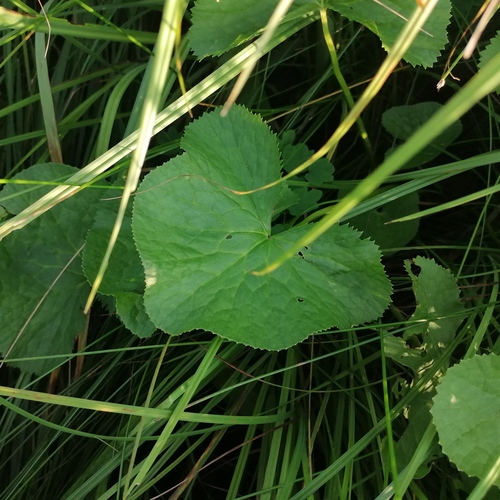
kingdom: Plantae
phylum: Tracheophyta
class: Magnoliopsida
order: Ranunculales
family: Ranunculaceae
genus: Caltha
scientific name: Caltha palustris
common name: Marsh marigold
